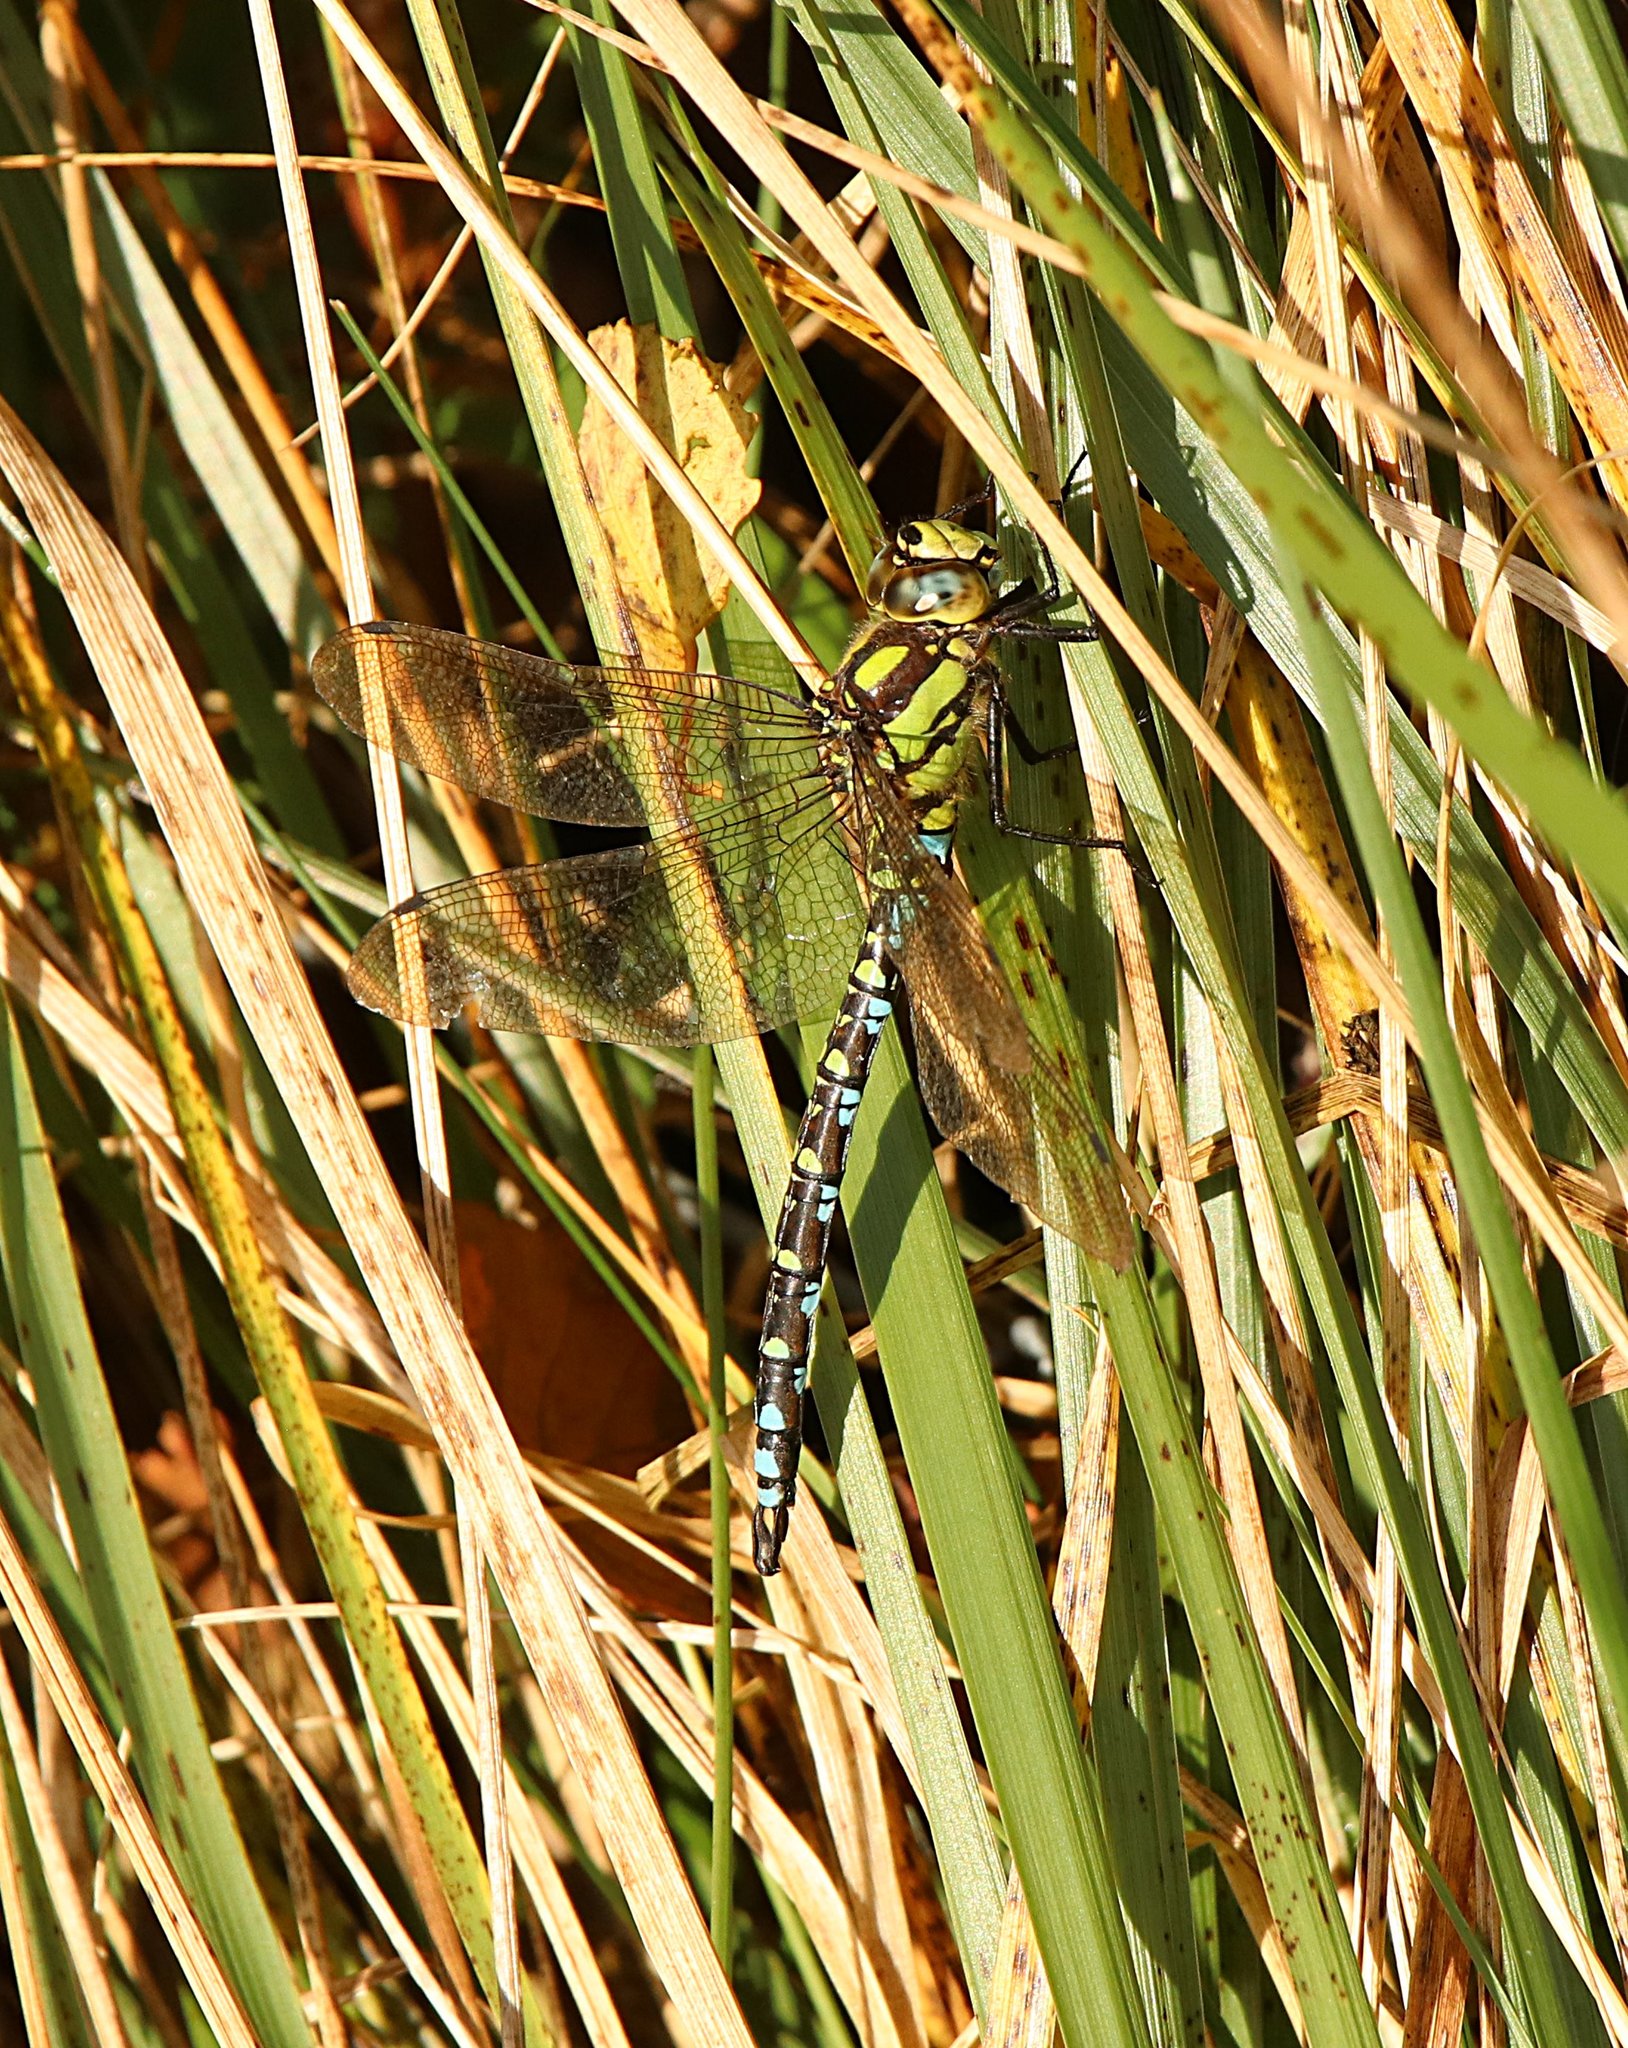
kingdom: Animalia
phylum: Arthropoda
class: Insecta
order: Odonata
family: Aeshnidae
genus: Aeshna
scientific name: Aeshna cyanea
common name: Southern hawker
